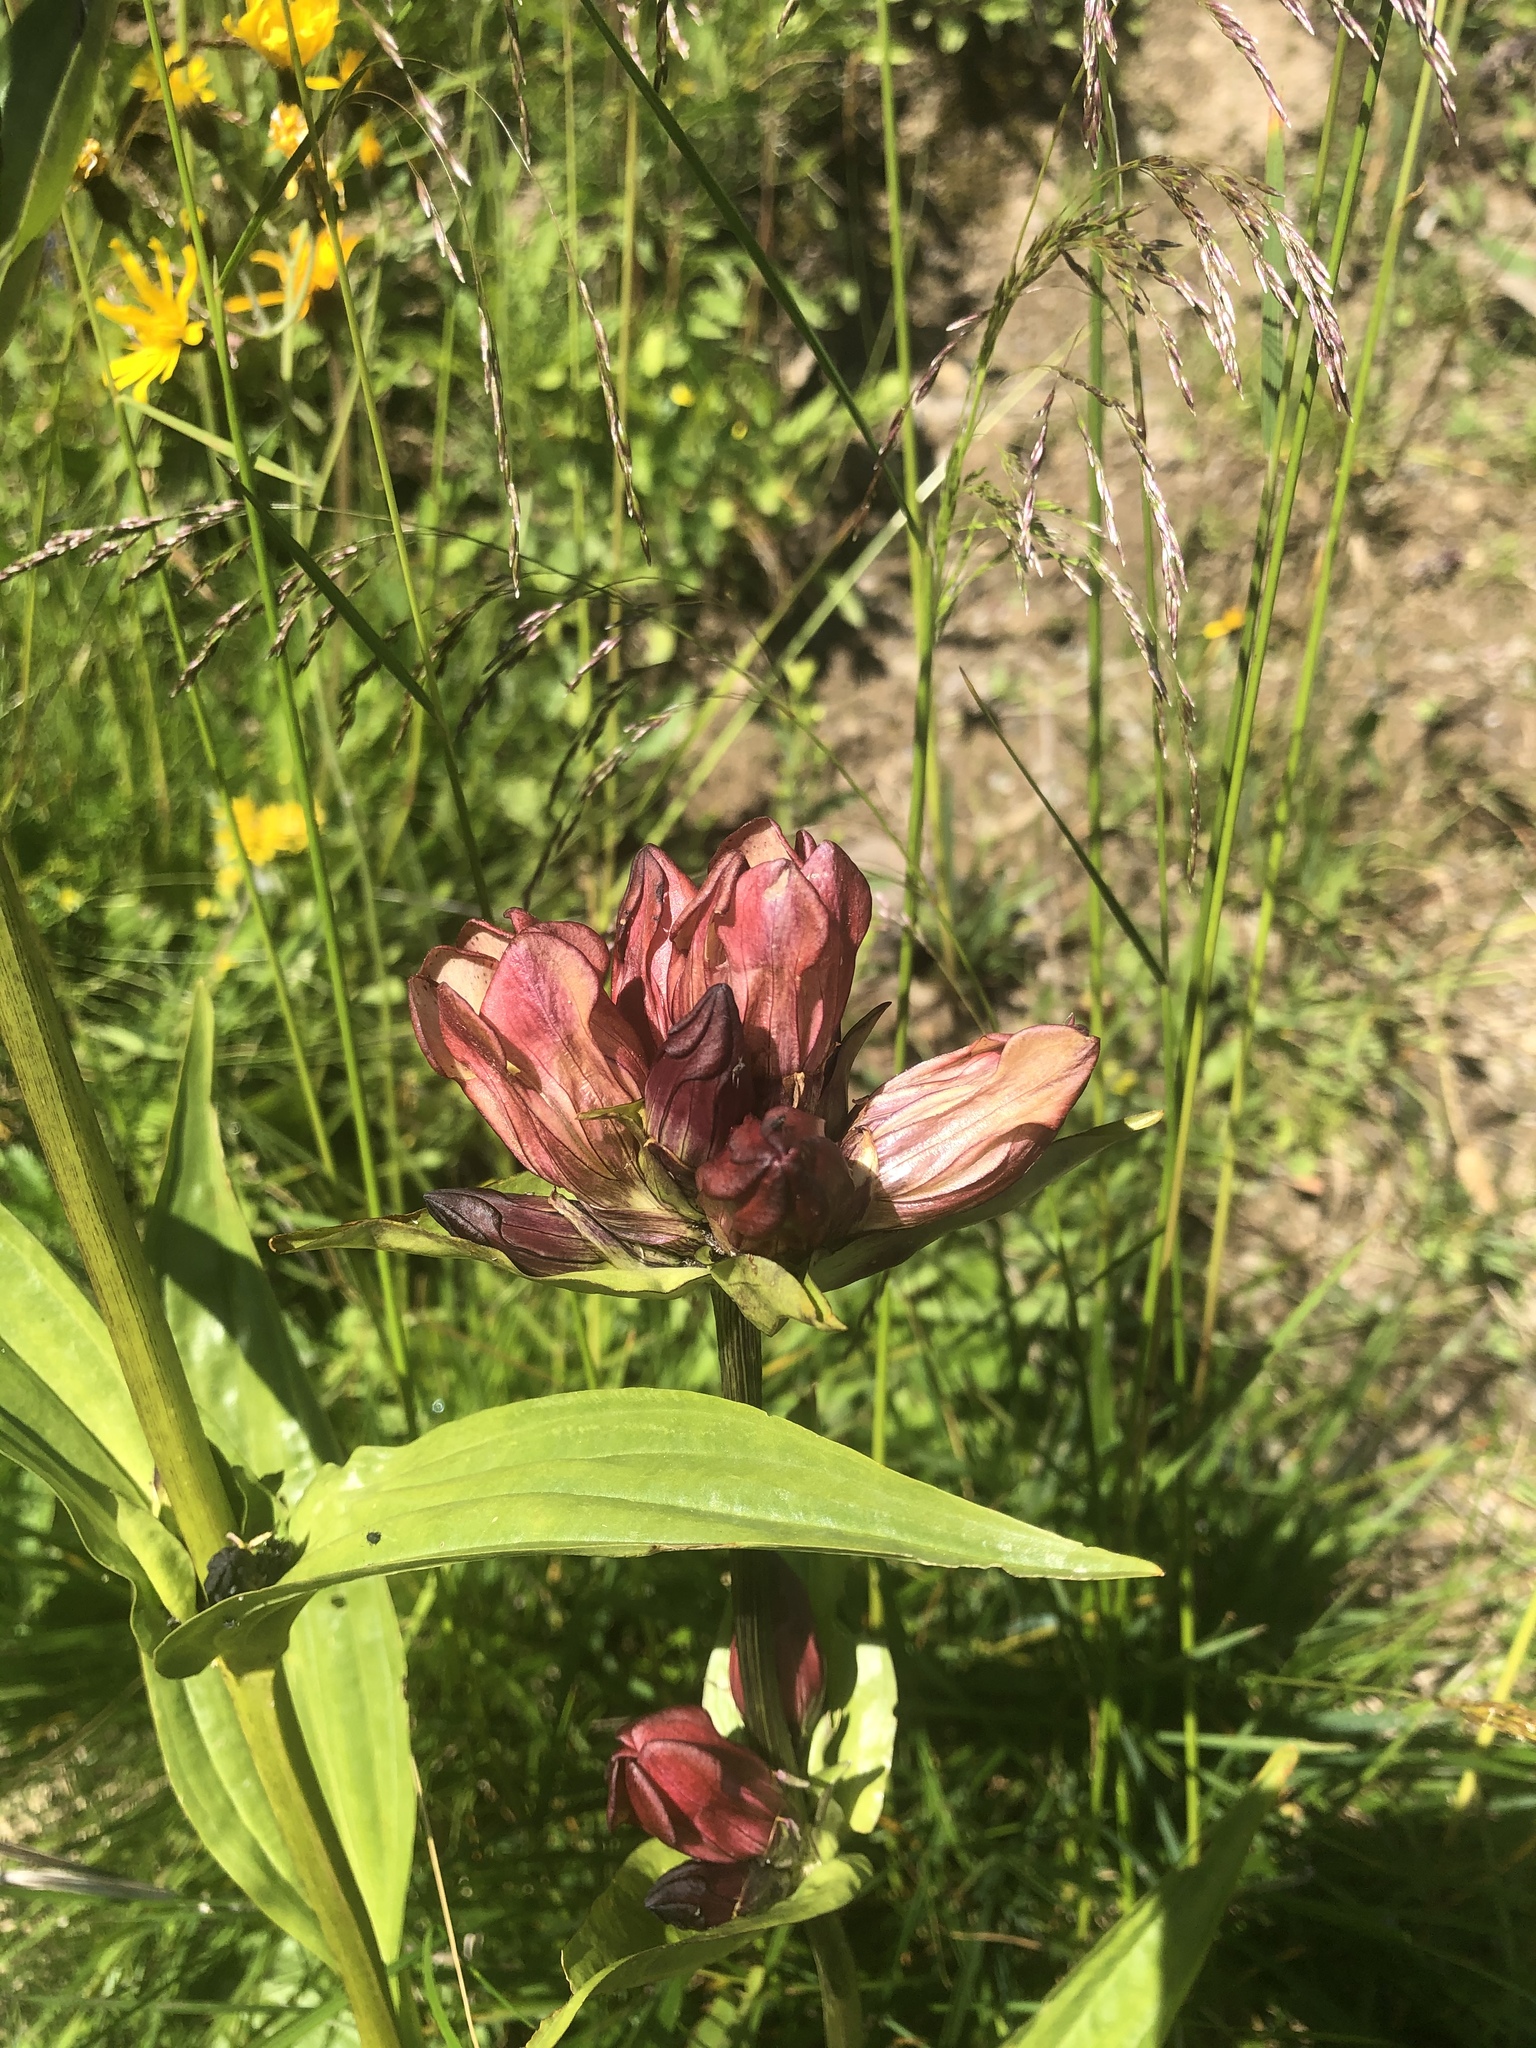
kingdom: Plantae
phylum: Tracheophyta
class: Magnoliopsida
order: Gentianales
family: Gentianaceae
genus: Gentiana
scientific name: Gentiana purpurea
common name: Purple gentian
